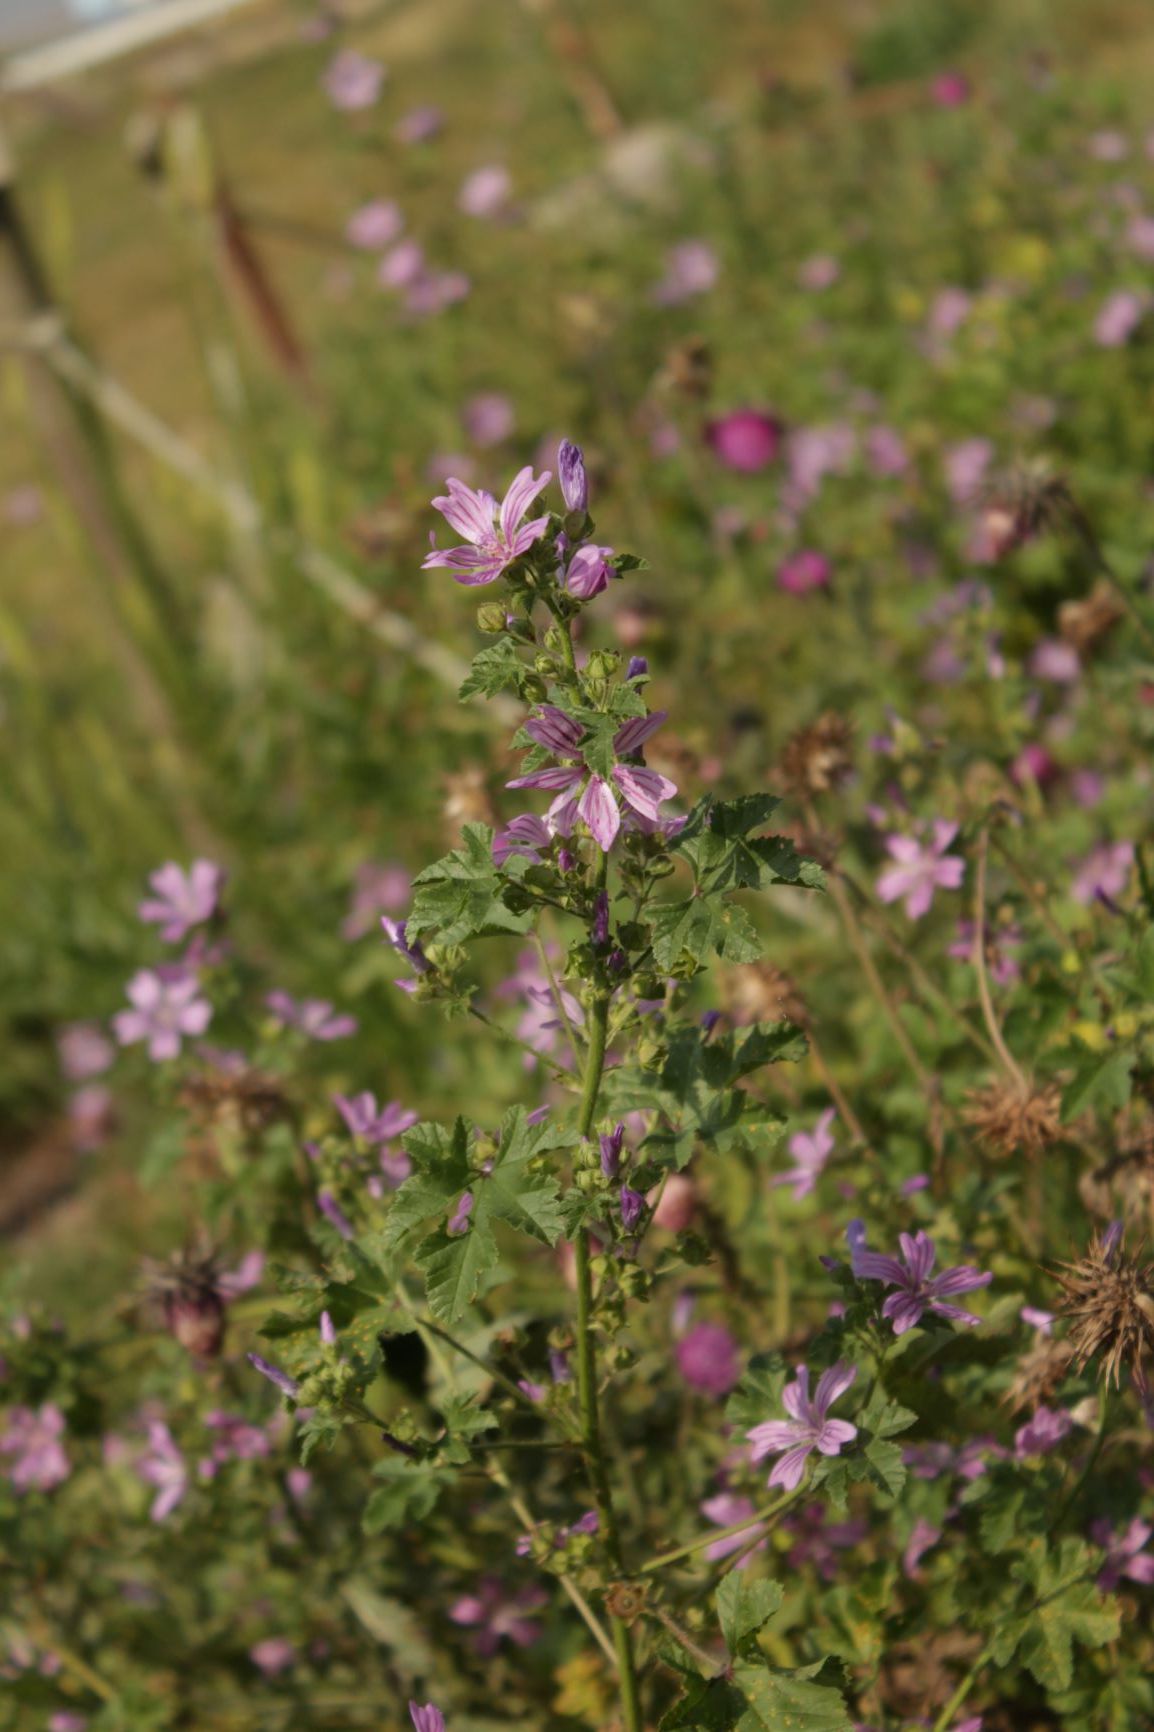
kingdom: Plantae
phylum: Tracheophyta
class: Magnoliopsida
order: Malvales
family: Malvaceae
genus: Malva
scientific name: Malva sylvestris
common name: Common mallow
